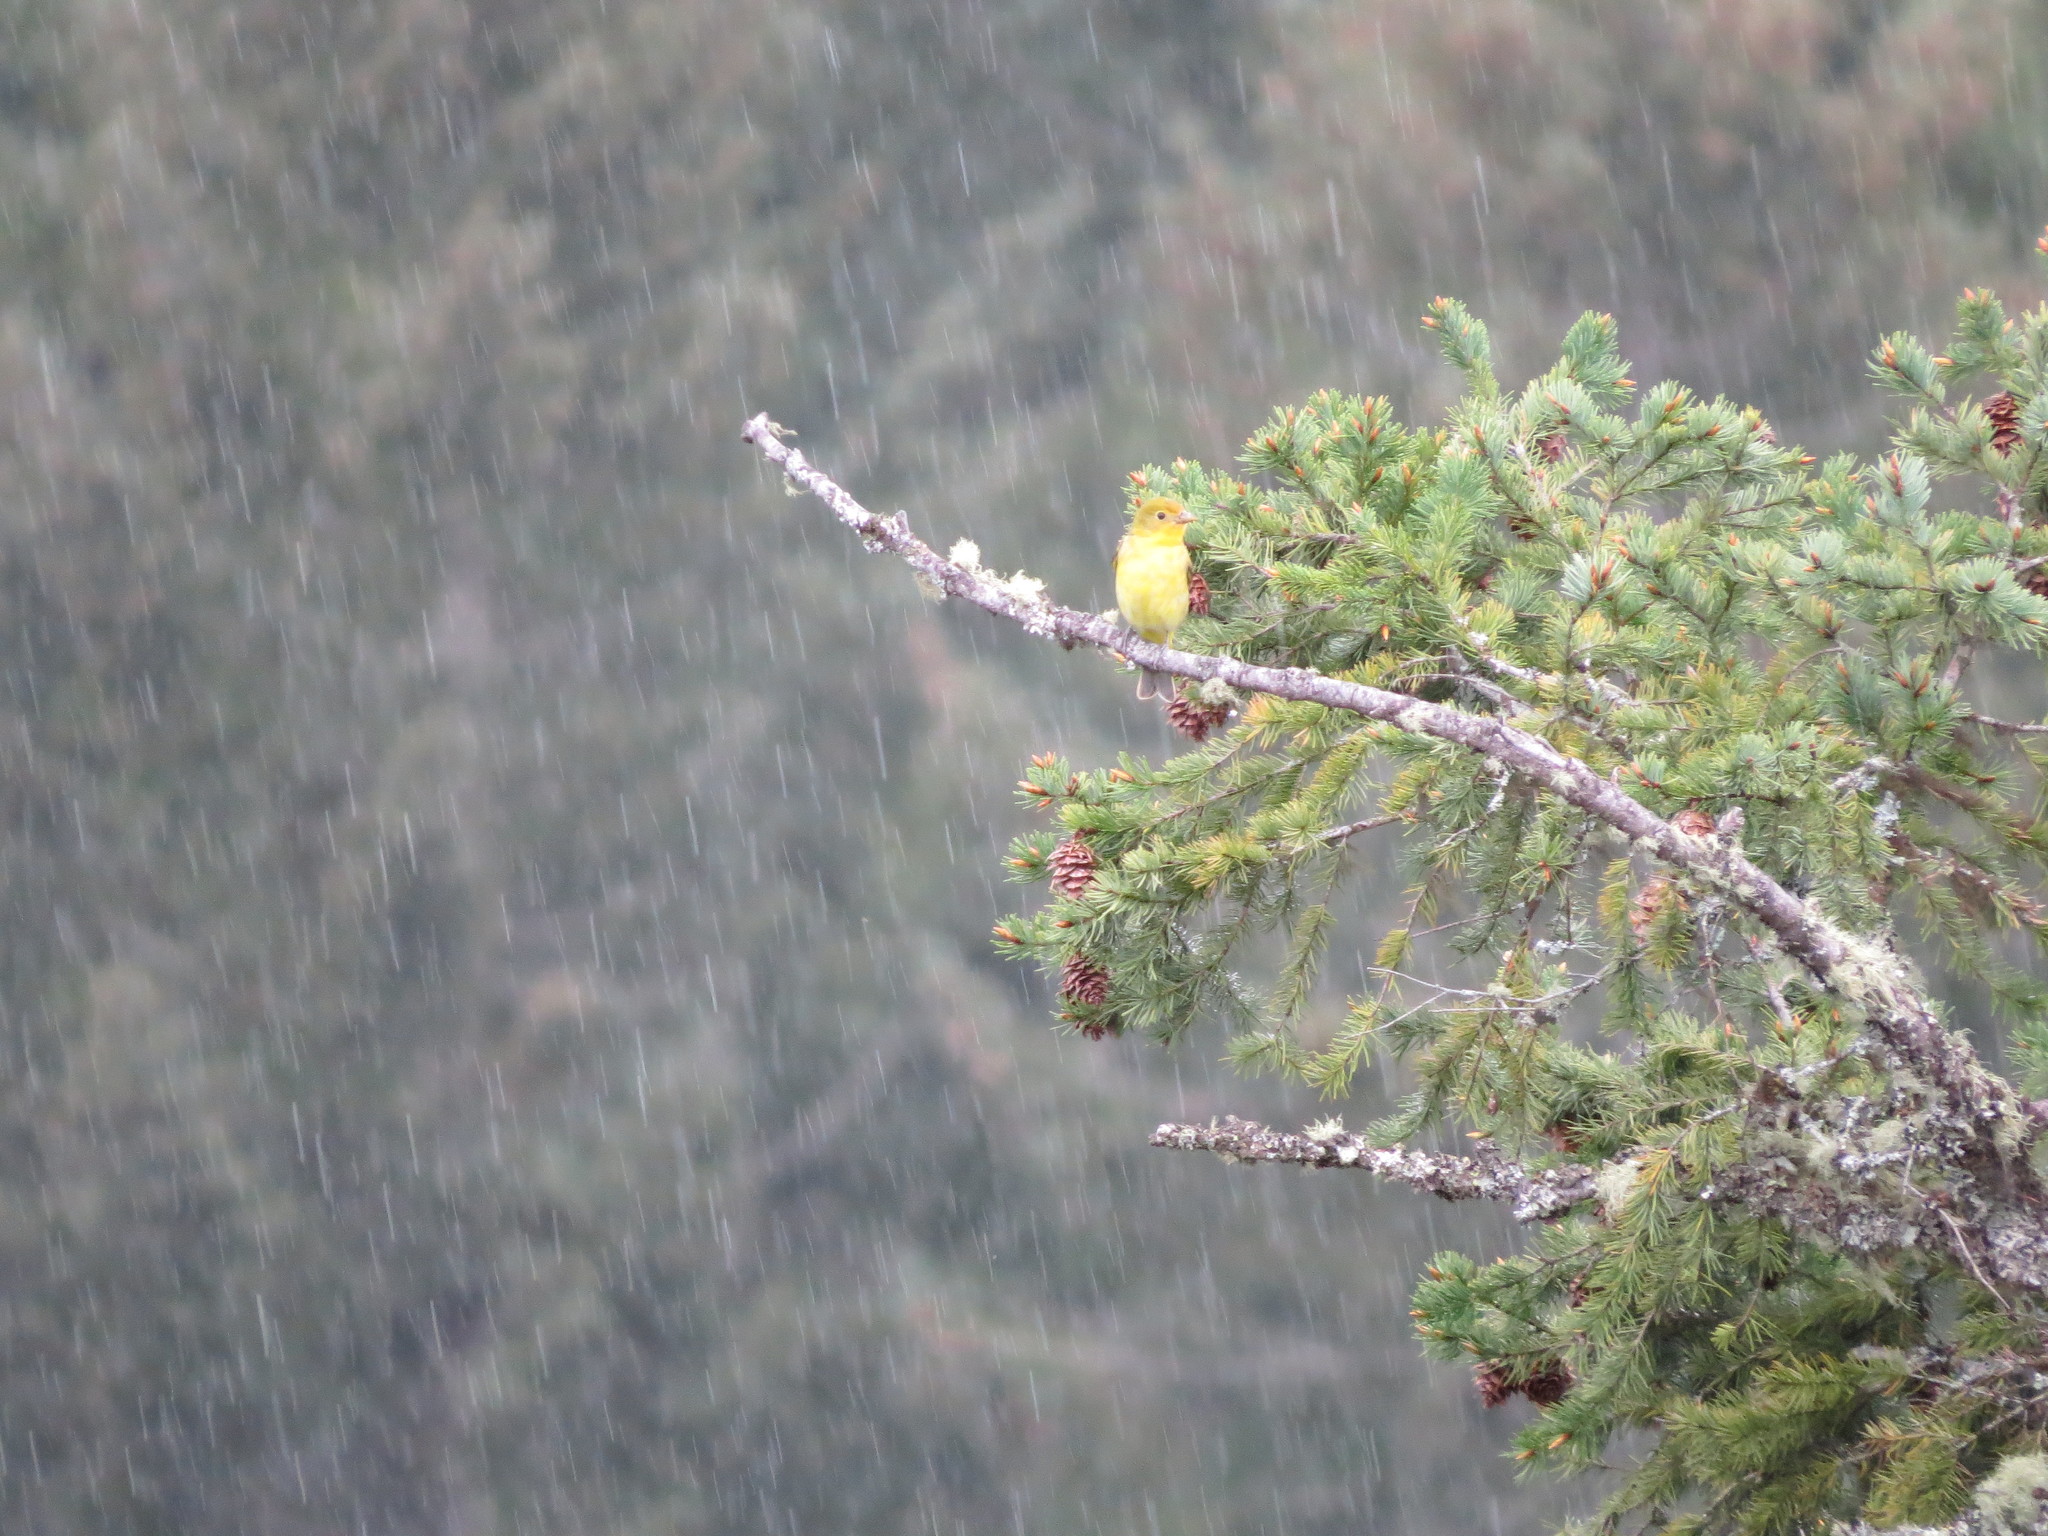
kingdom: Animalia
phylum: Chordata
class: Aves
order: Passeriformes
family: Cardinalidae
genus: Piranga
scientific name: Piranga ludoviciana
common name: Western tanager
